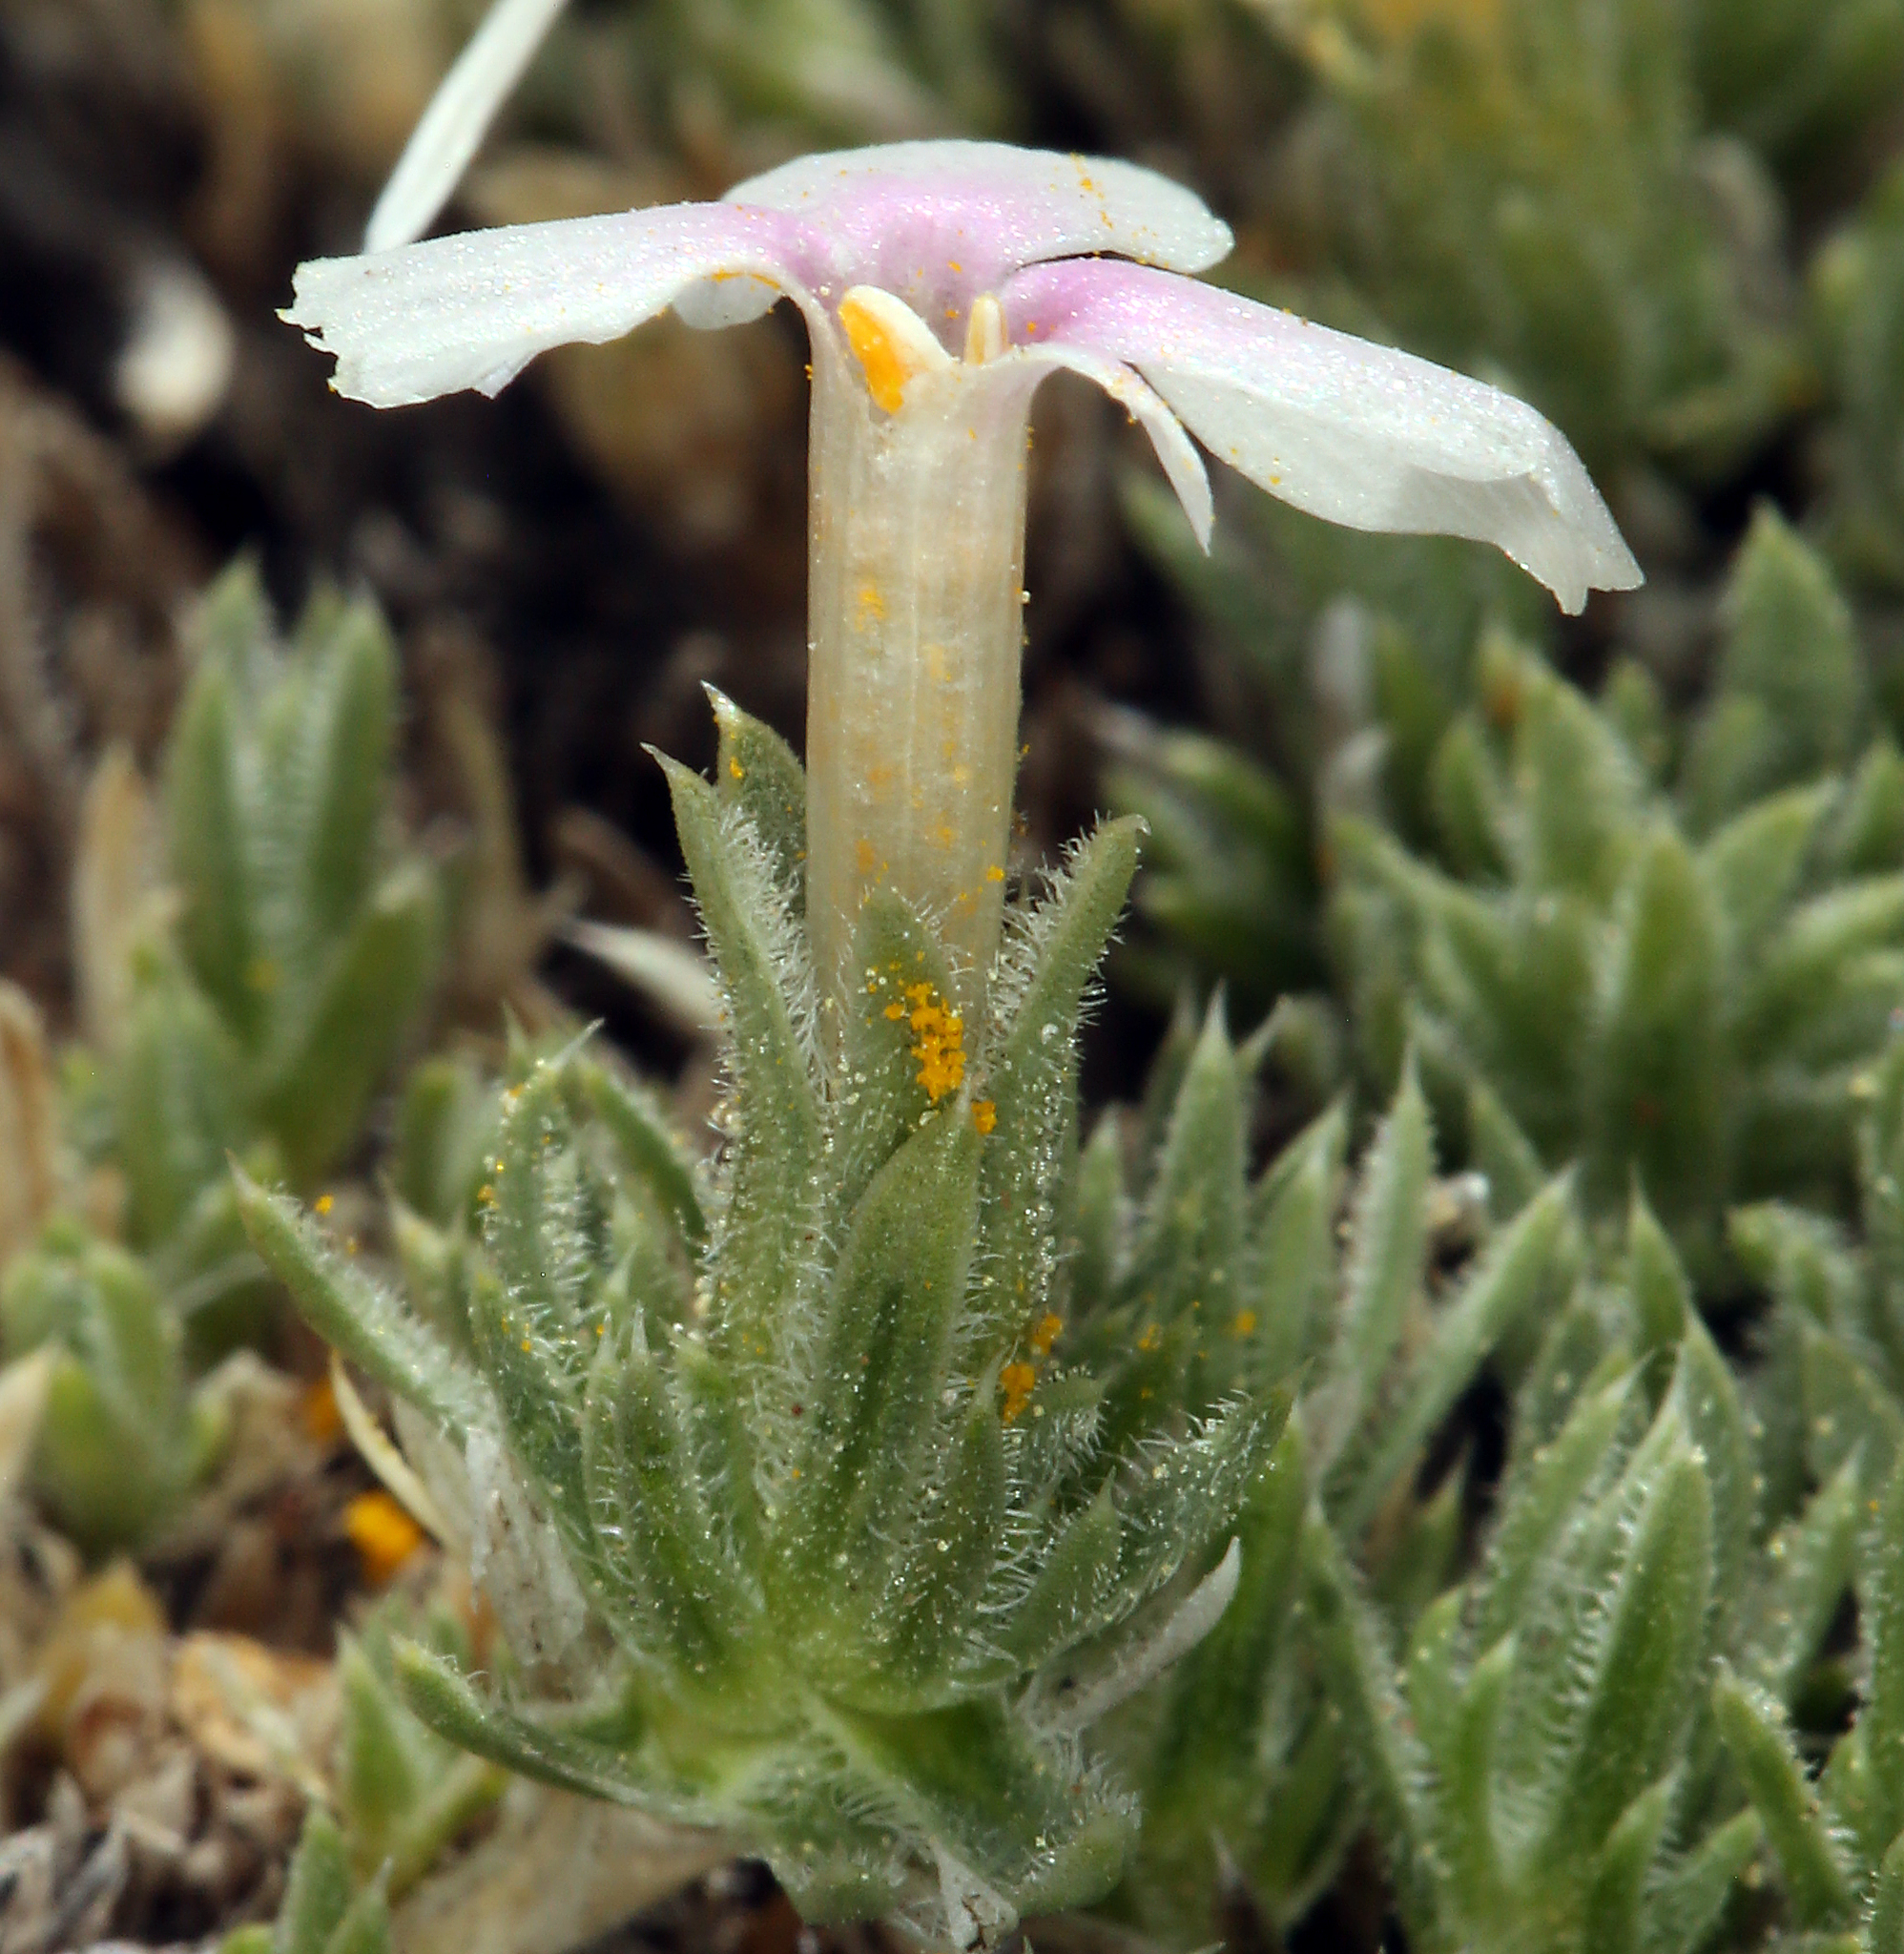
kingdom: Plantae
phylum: Tracheophyta
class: Magnoliopsida
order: Ericales
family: Polemoniaceae
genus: Phlox
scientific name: Phlox condensata
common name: Compact phlox
